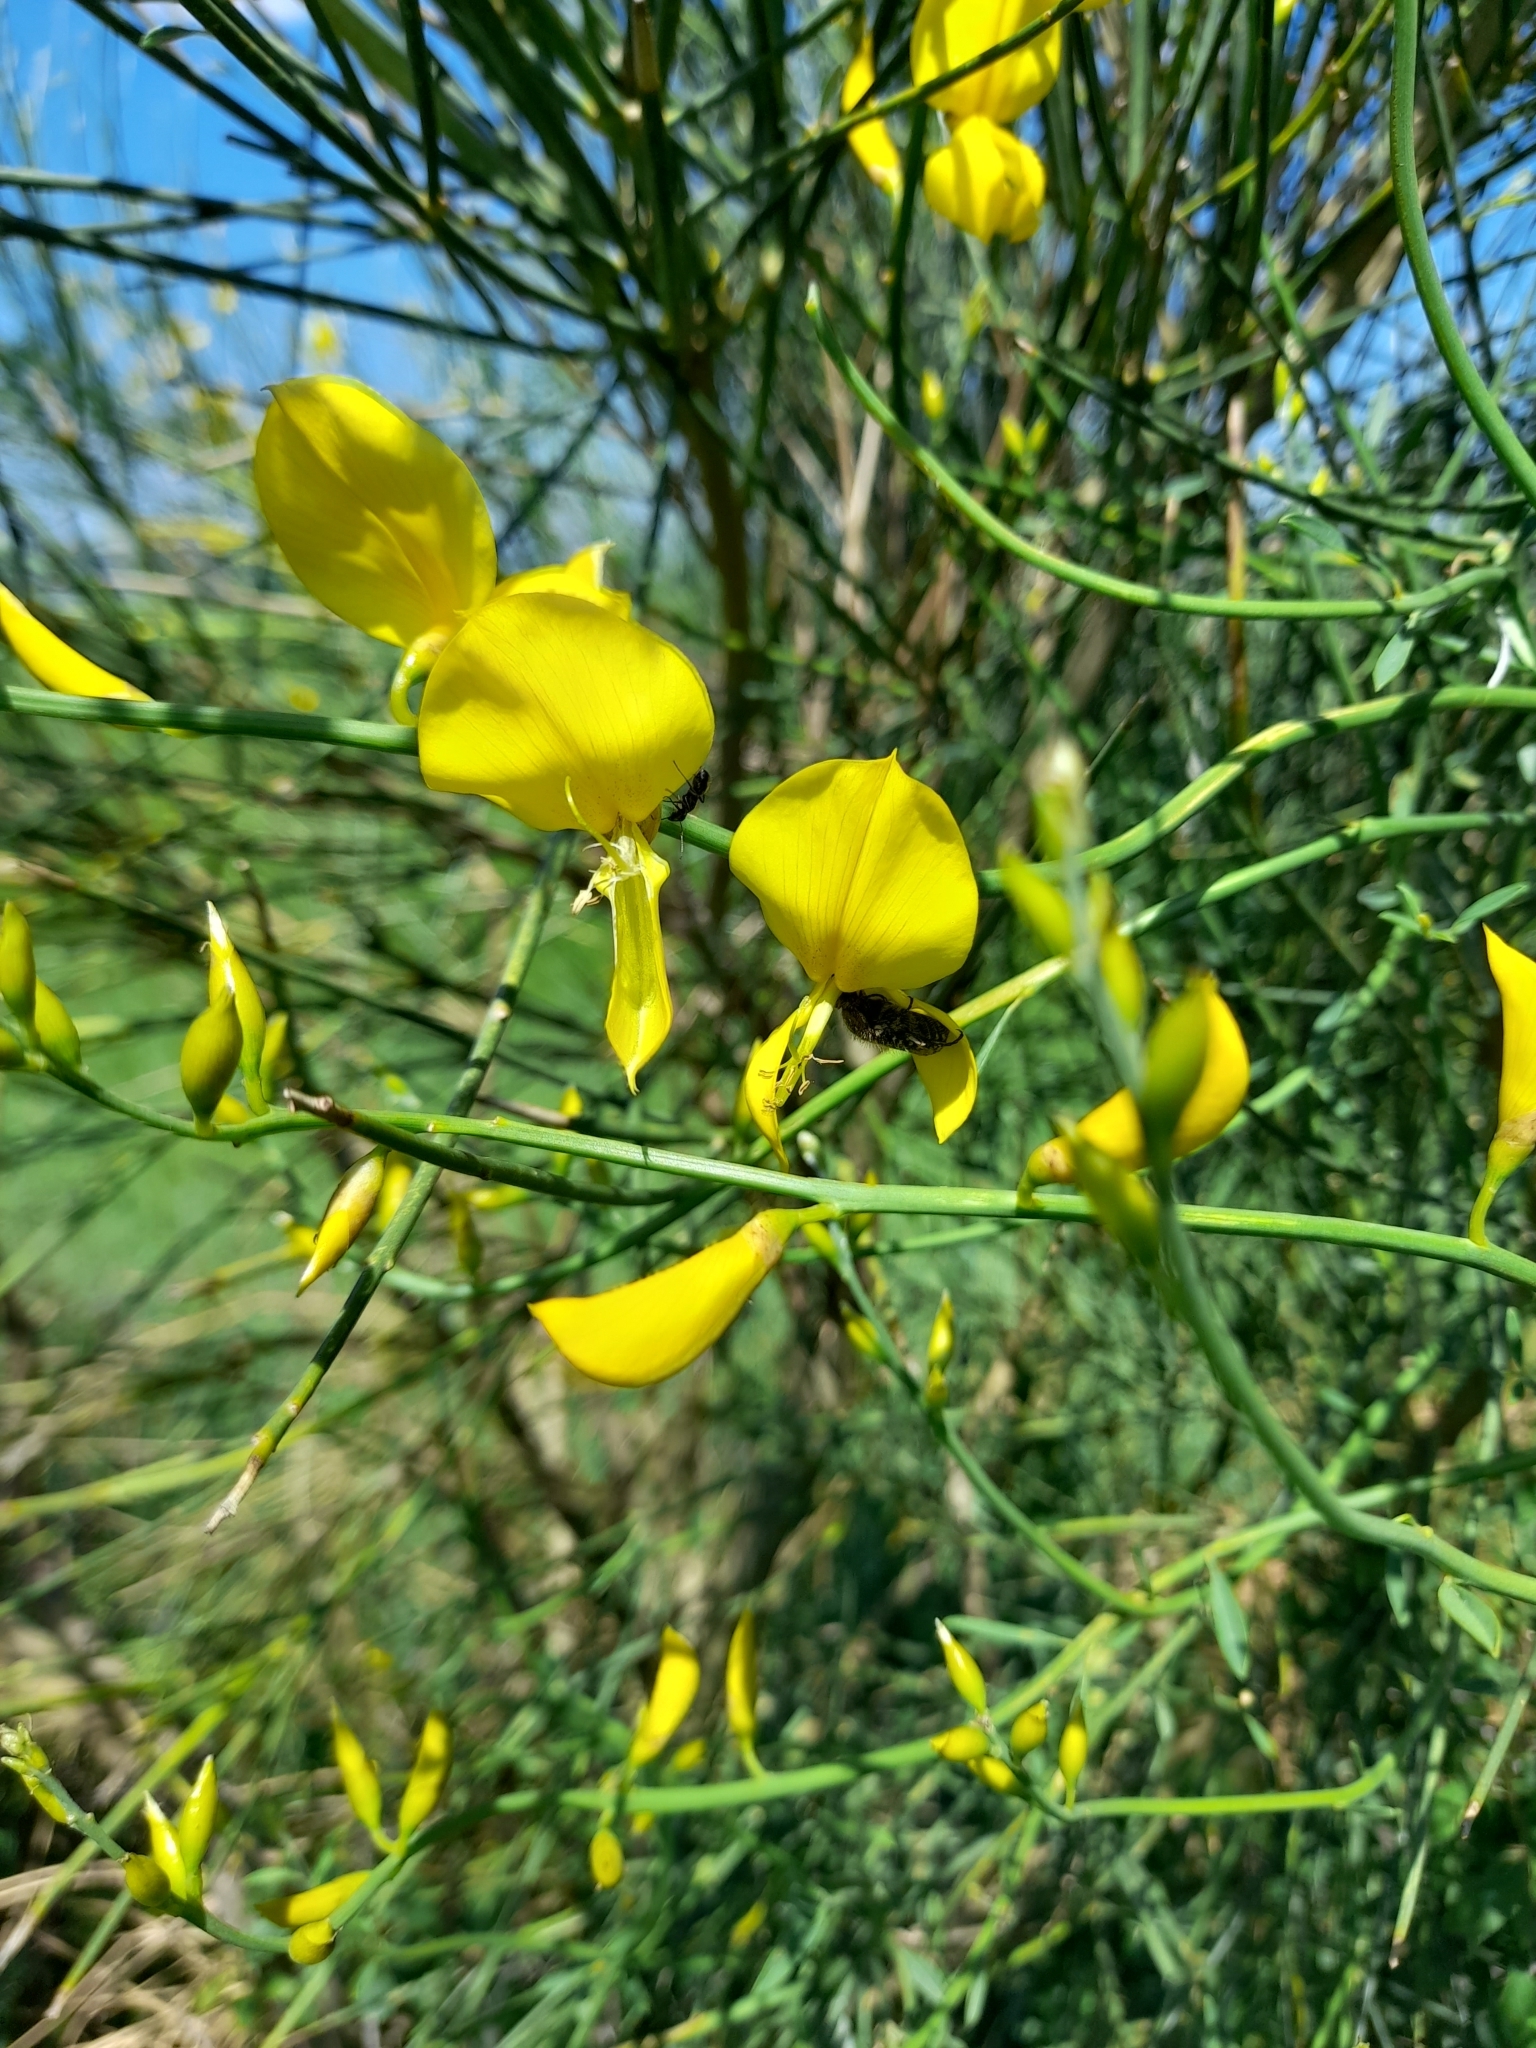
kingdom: Plantae
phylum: Tracheophyta
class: Magnoliopsida
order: Fabales
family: Fabaceae
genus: Spartium
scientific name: Spartium junceum
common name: Spanish broom
